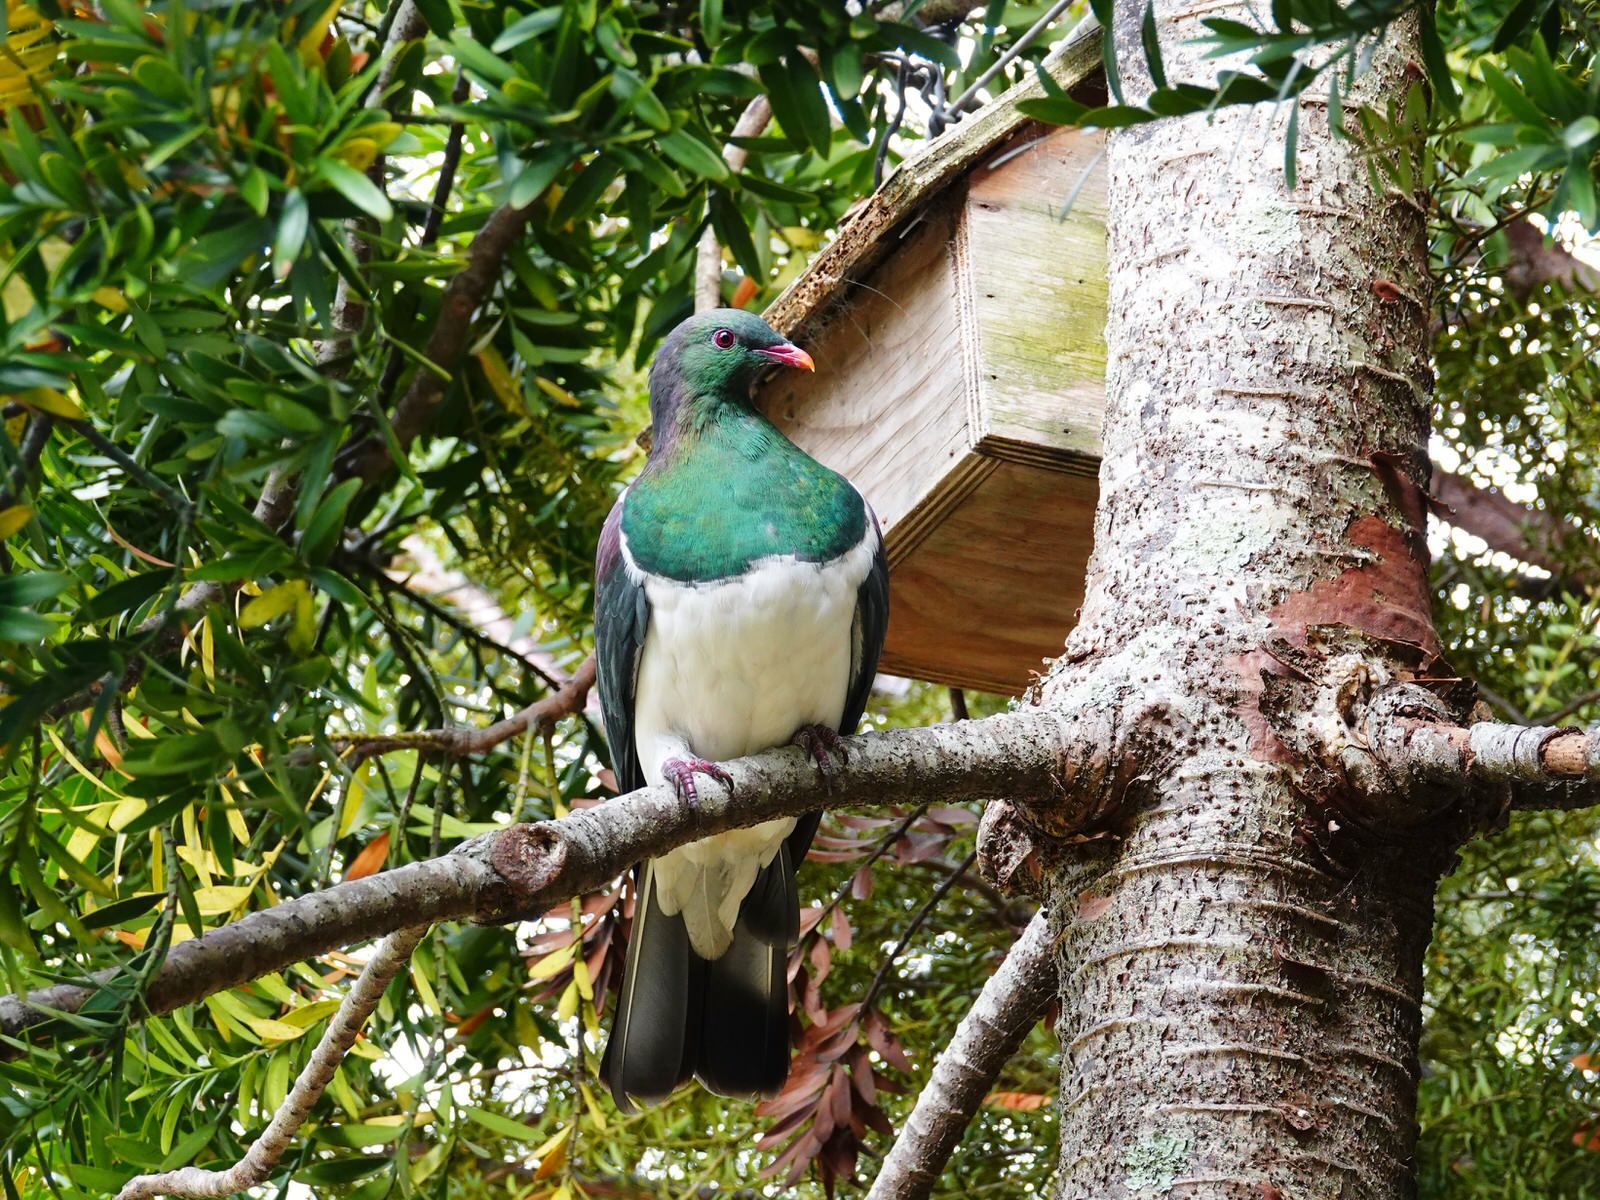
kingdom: Animalia
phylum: Chordata
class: Aves
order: Columbiformes
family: Columbidae
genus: Hemiphaga
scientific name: Hemiphaga novaeseelandiae
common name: New zealand pigeon
